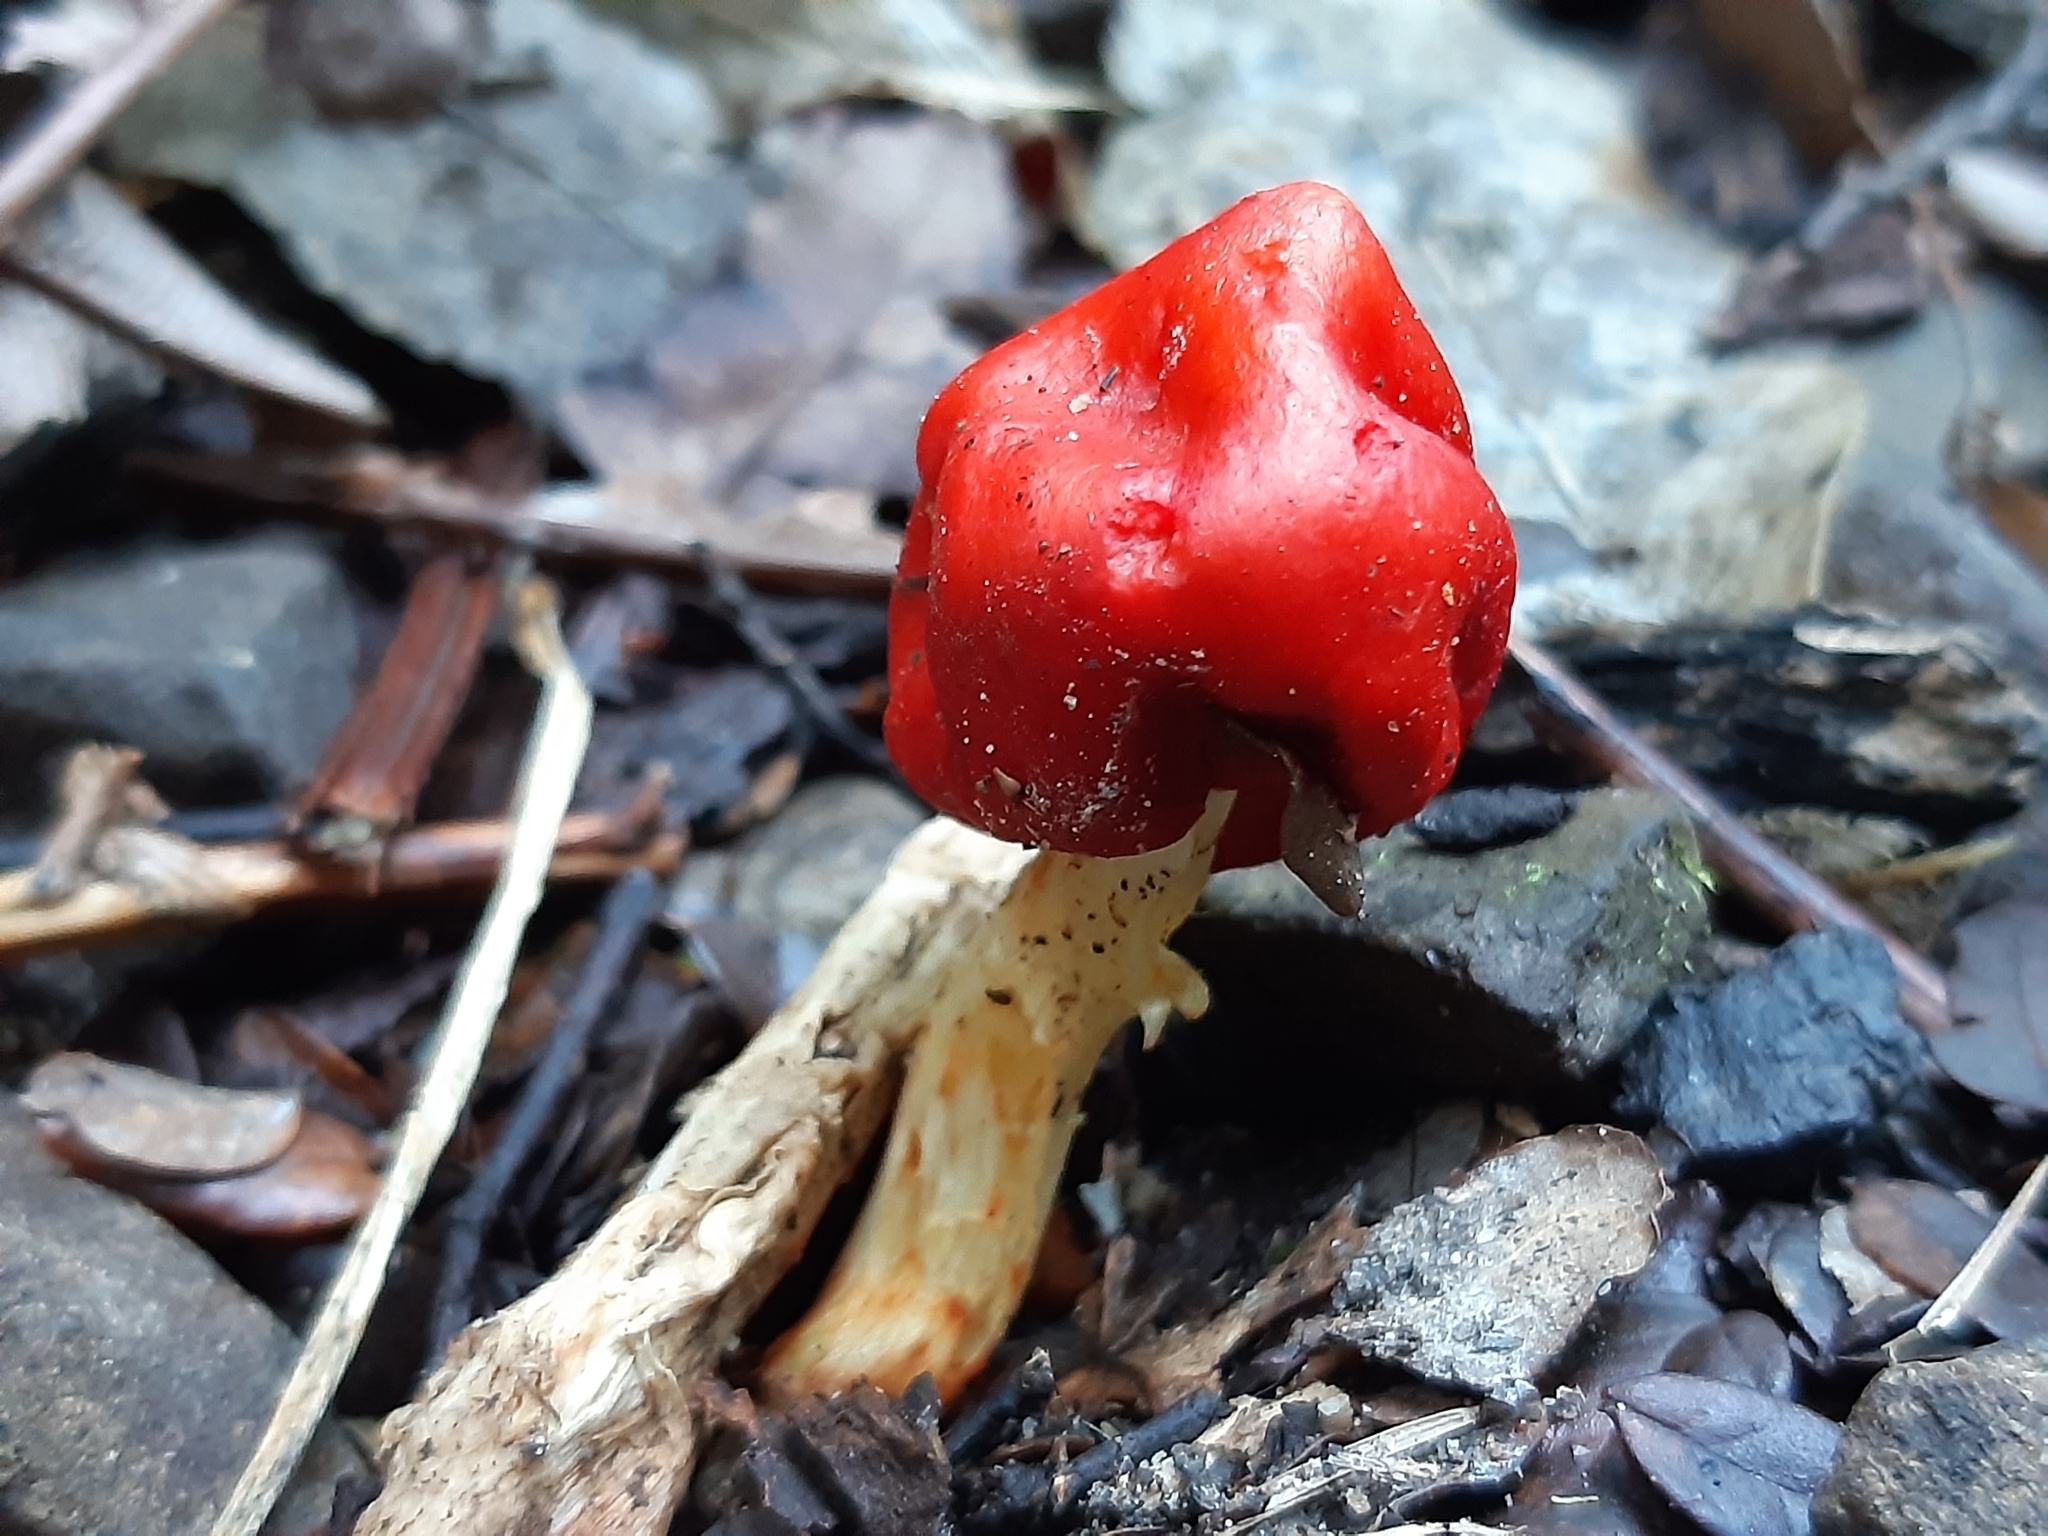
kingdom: Fungi
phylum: Basidiomycota
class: Agaricomycetes
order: Agaricales
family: Strophariaceae
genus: Leratiomyces
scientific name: Leratiomyces erythrocephalus
